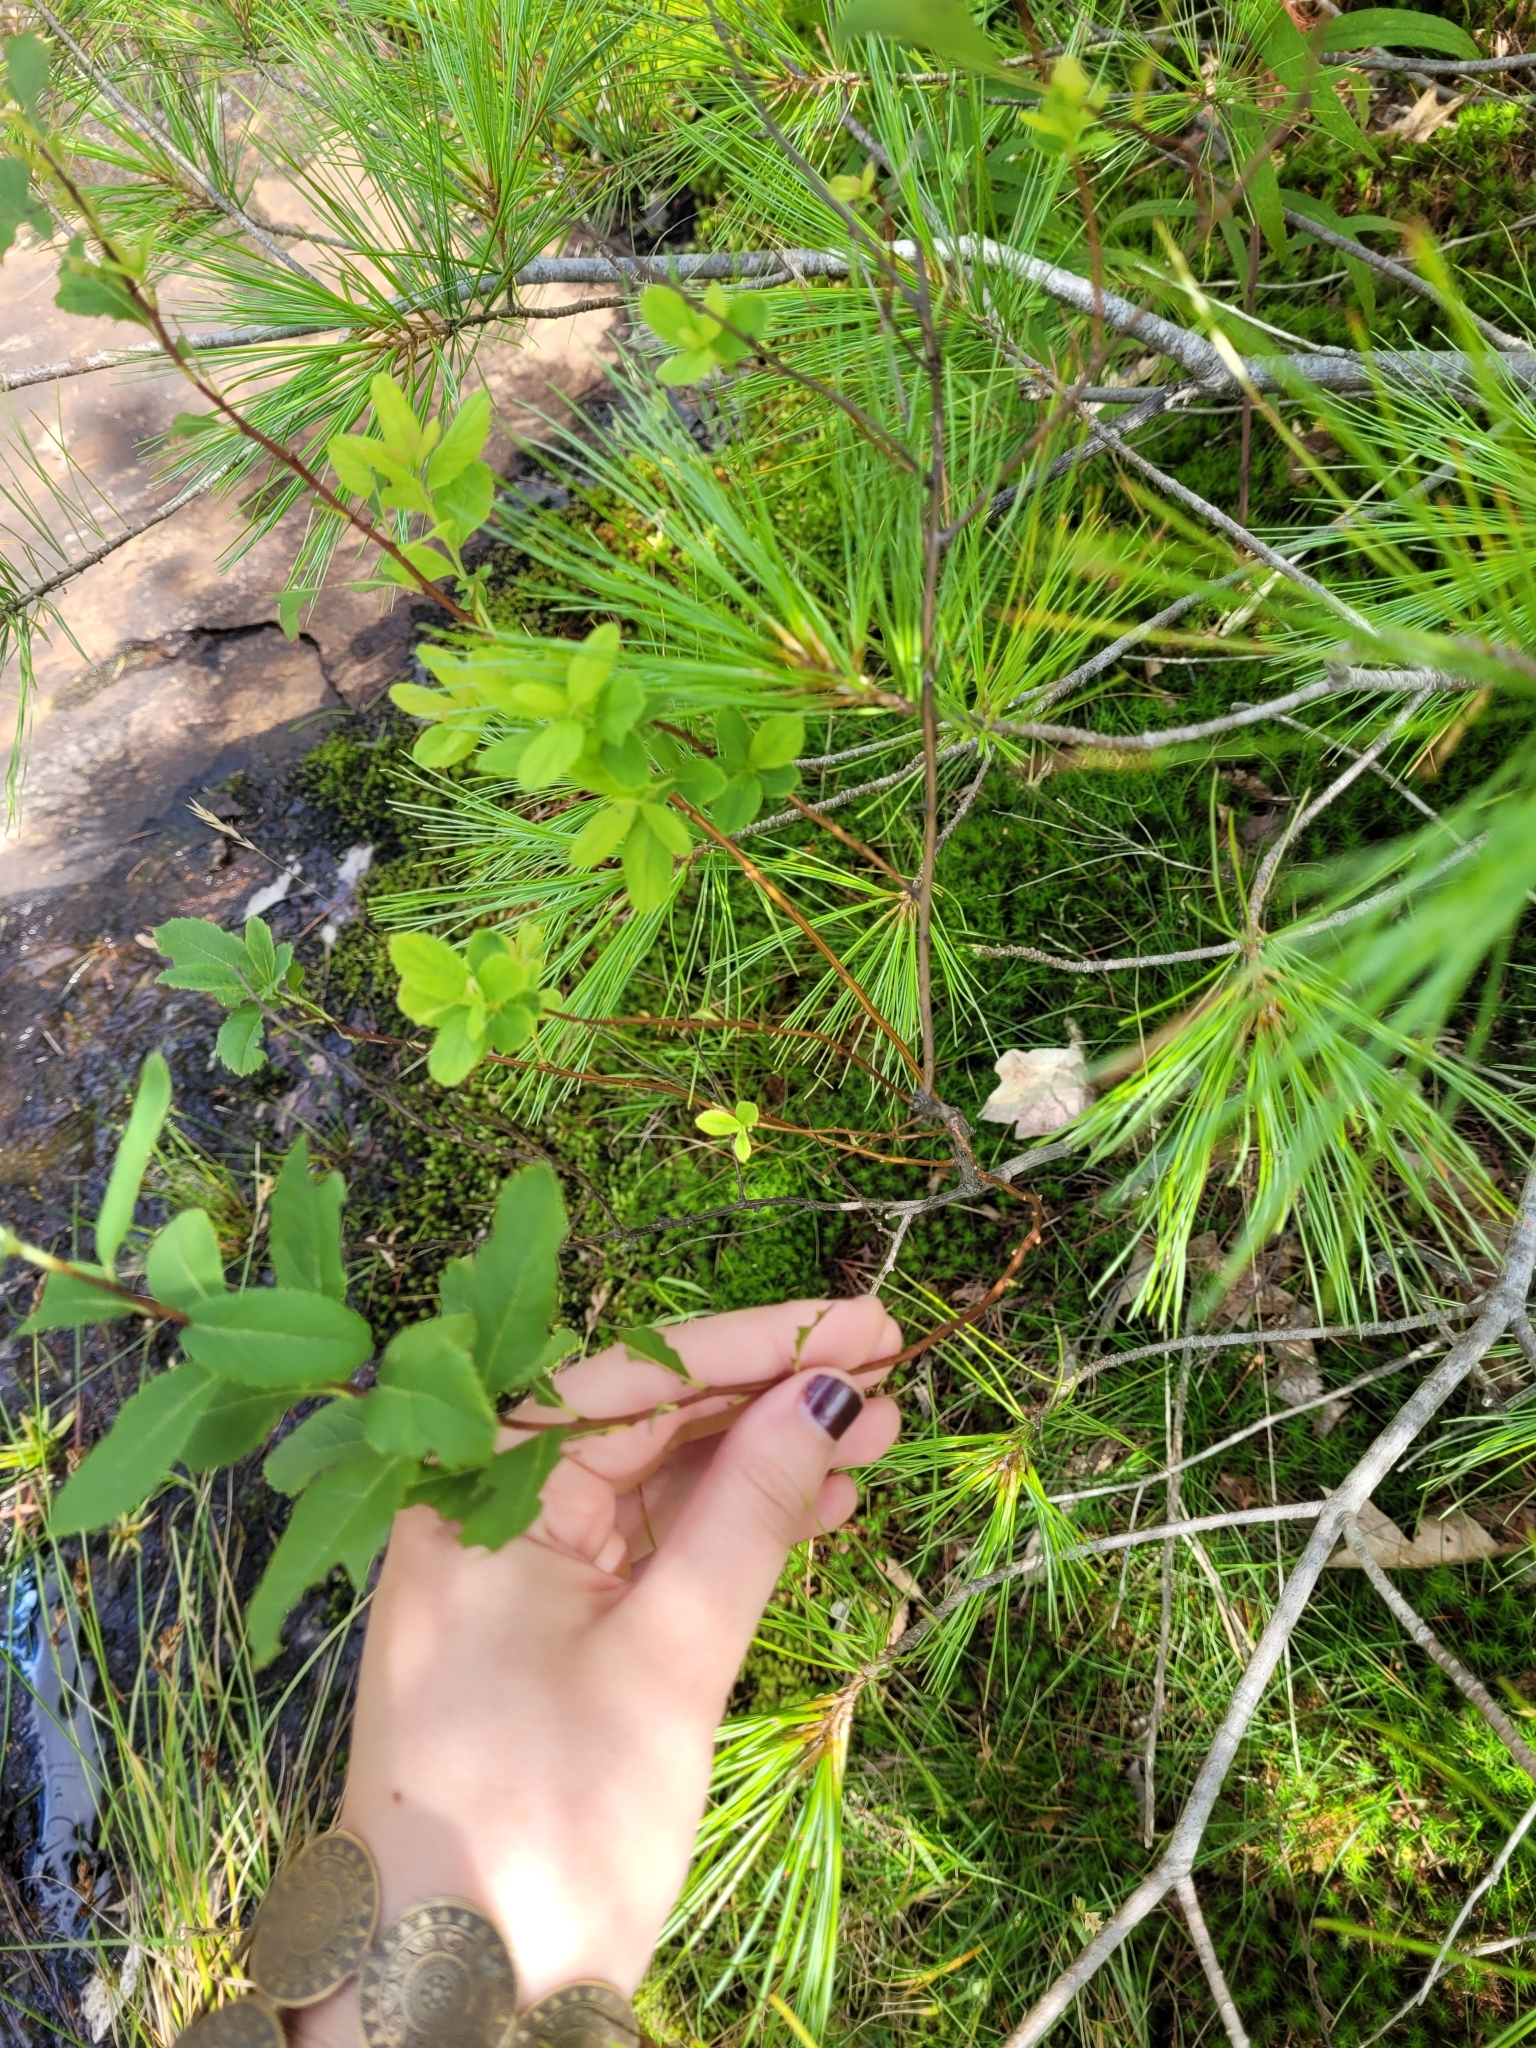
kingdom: Plantae
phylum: Tracheophyta
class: Magnoliopsida
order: Rosales
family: Rosaceae
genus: Spiraea
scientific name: Spiraea alba
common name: Pale bridewort
